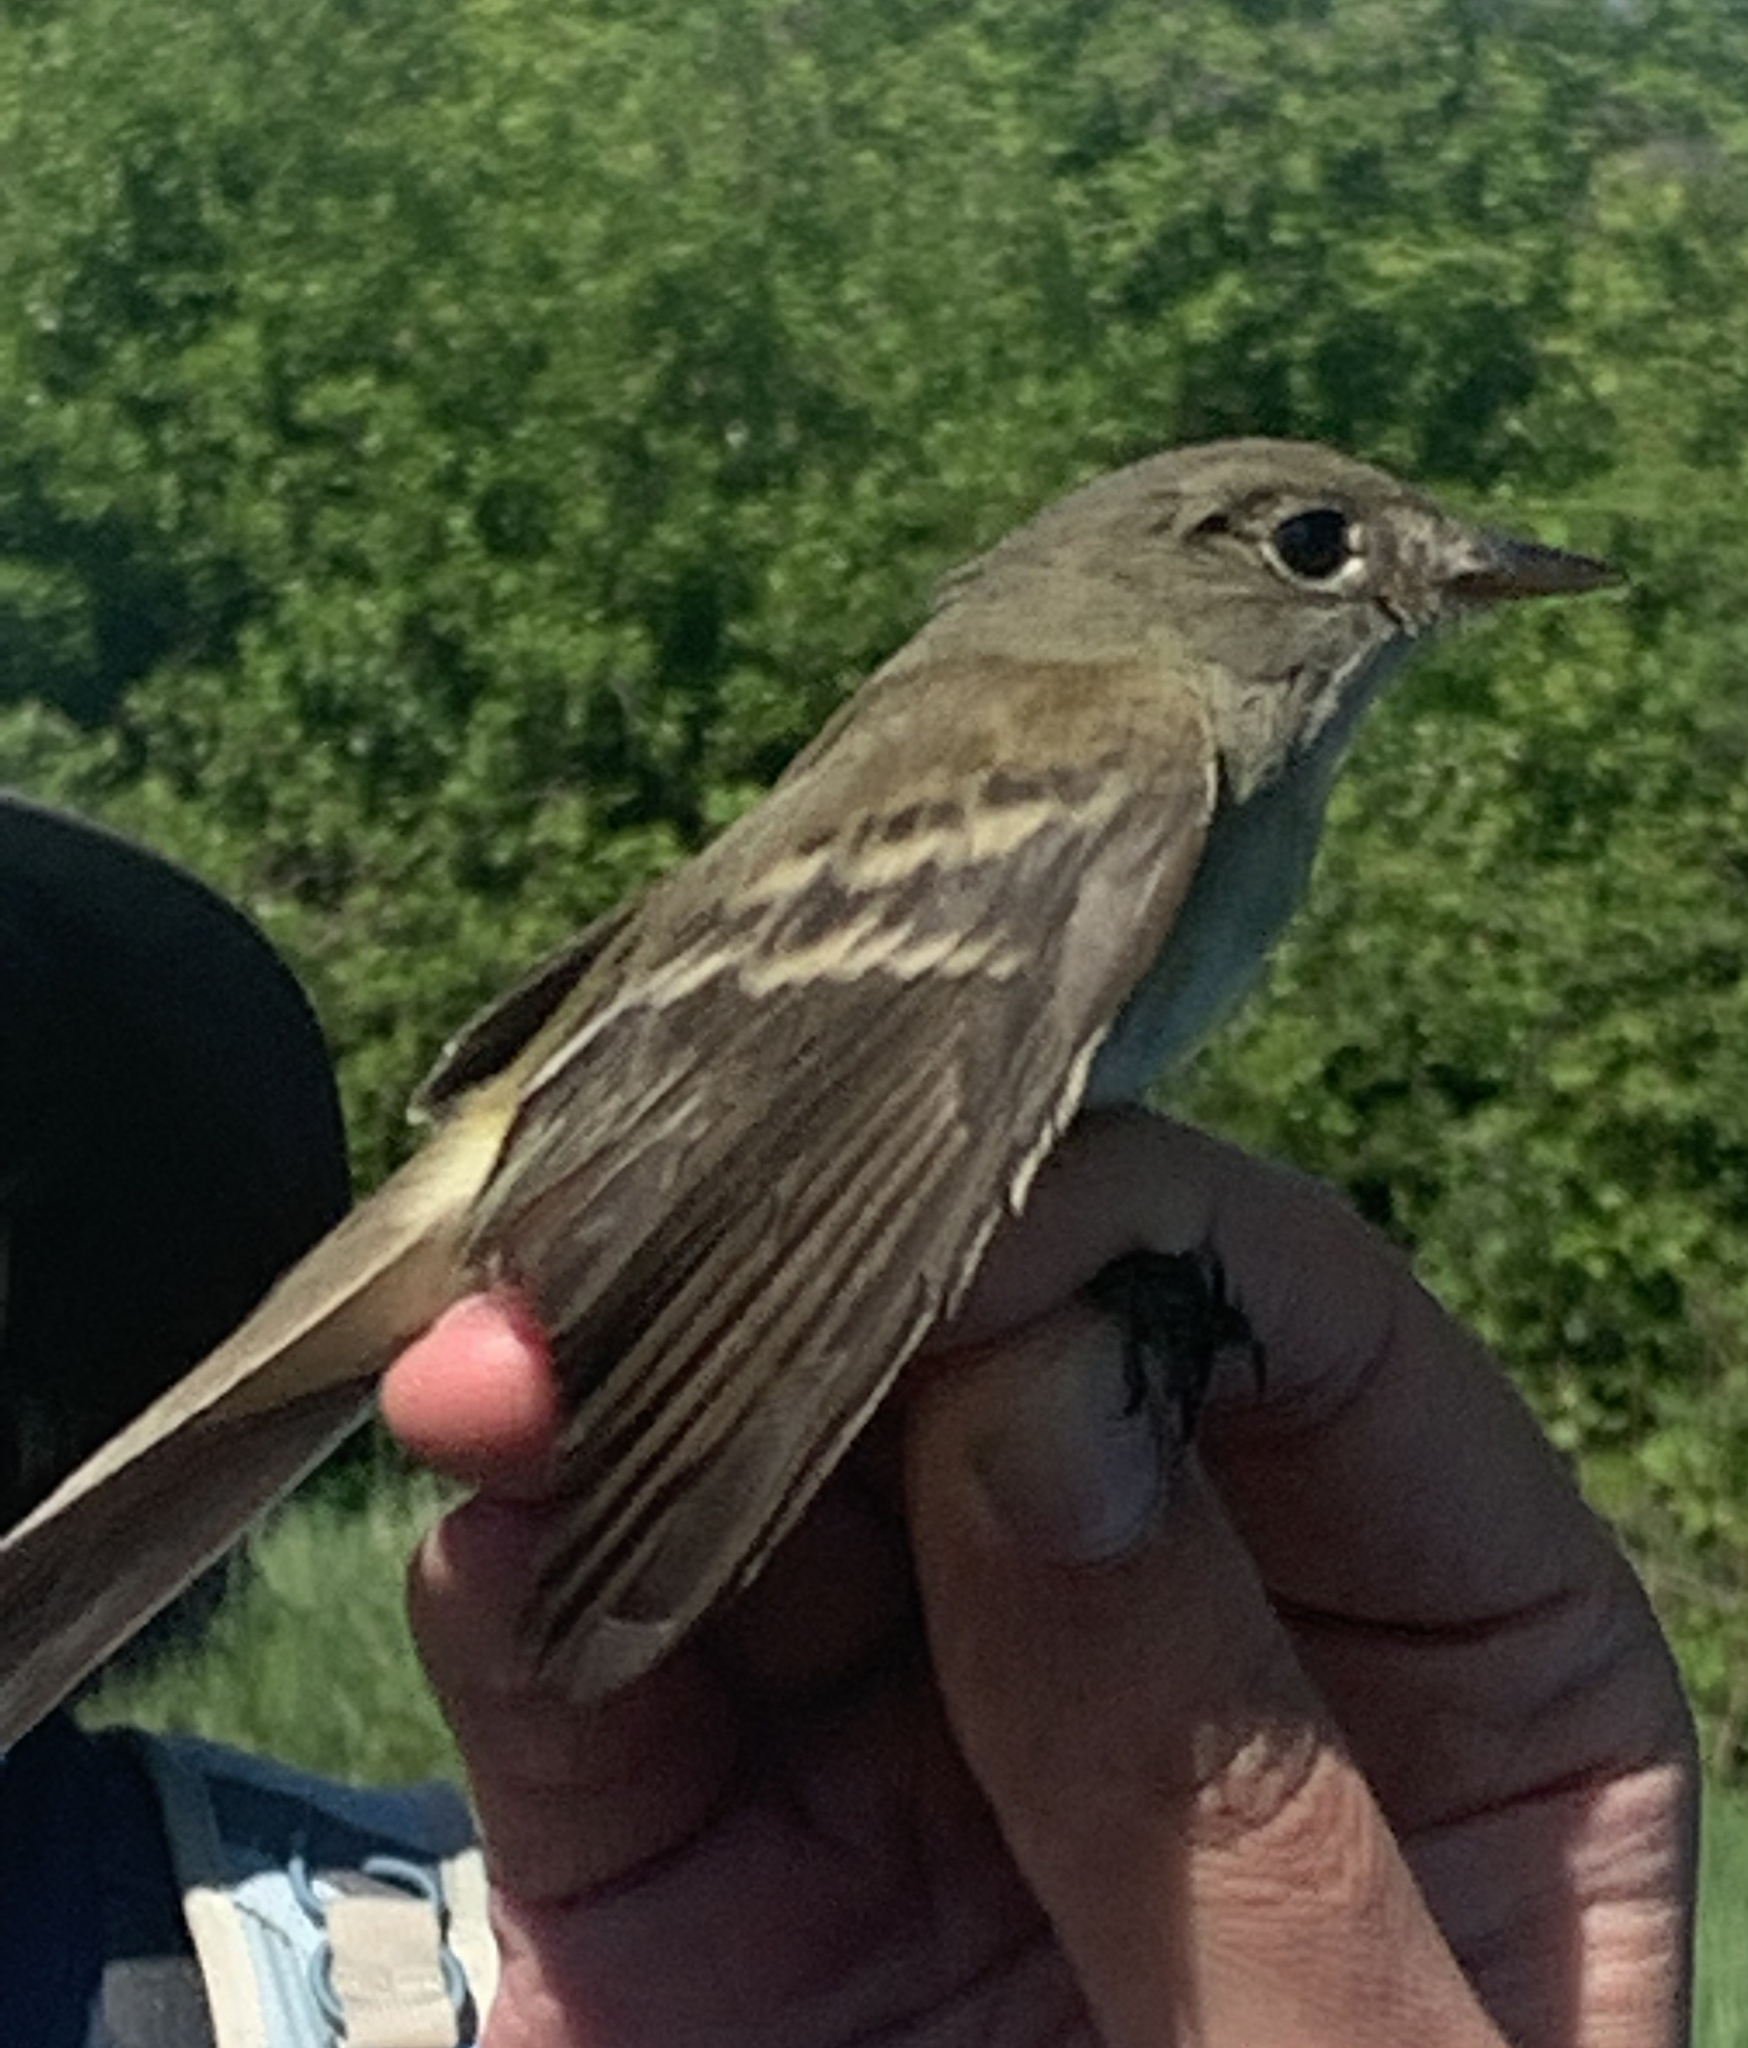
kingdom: Animalia
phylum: Chordata
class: Aves
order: Passeriformes
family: Tyrannidae
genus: Empidonax
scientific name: Empidonax alnorum
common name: Alder flycatcher
